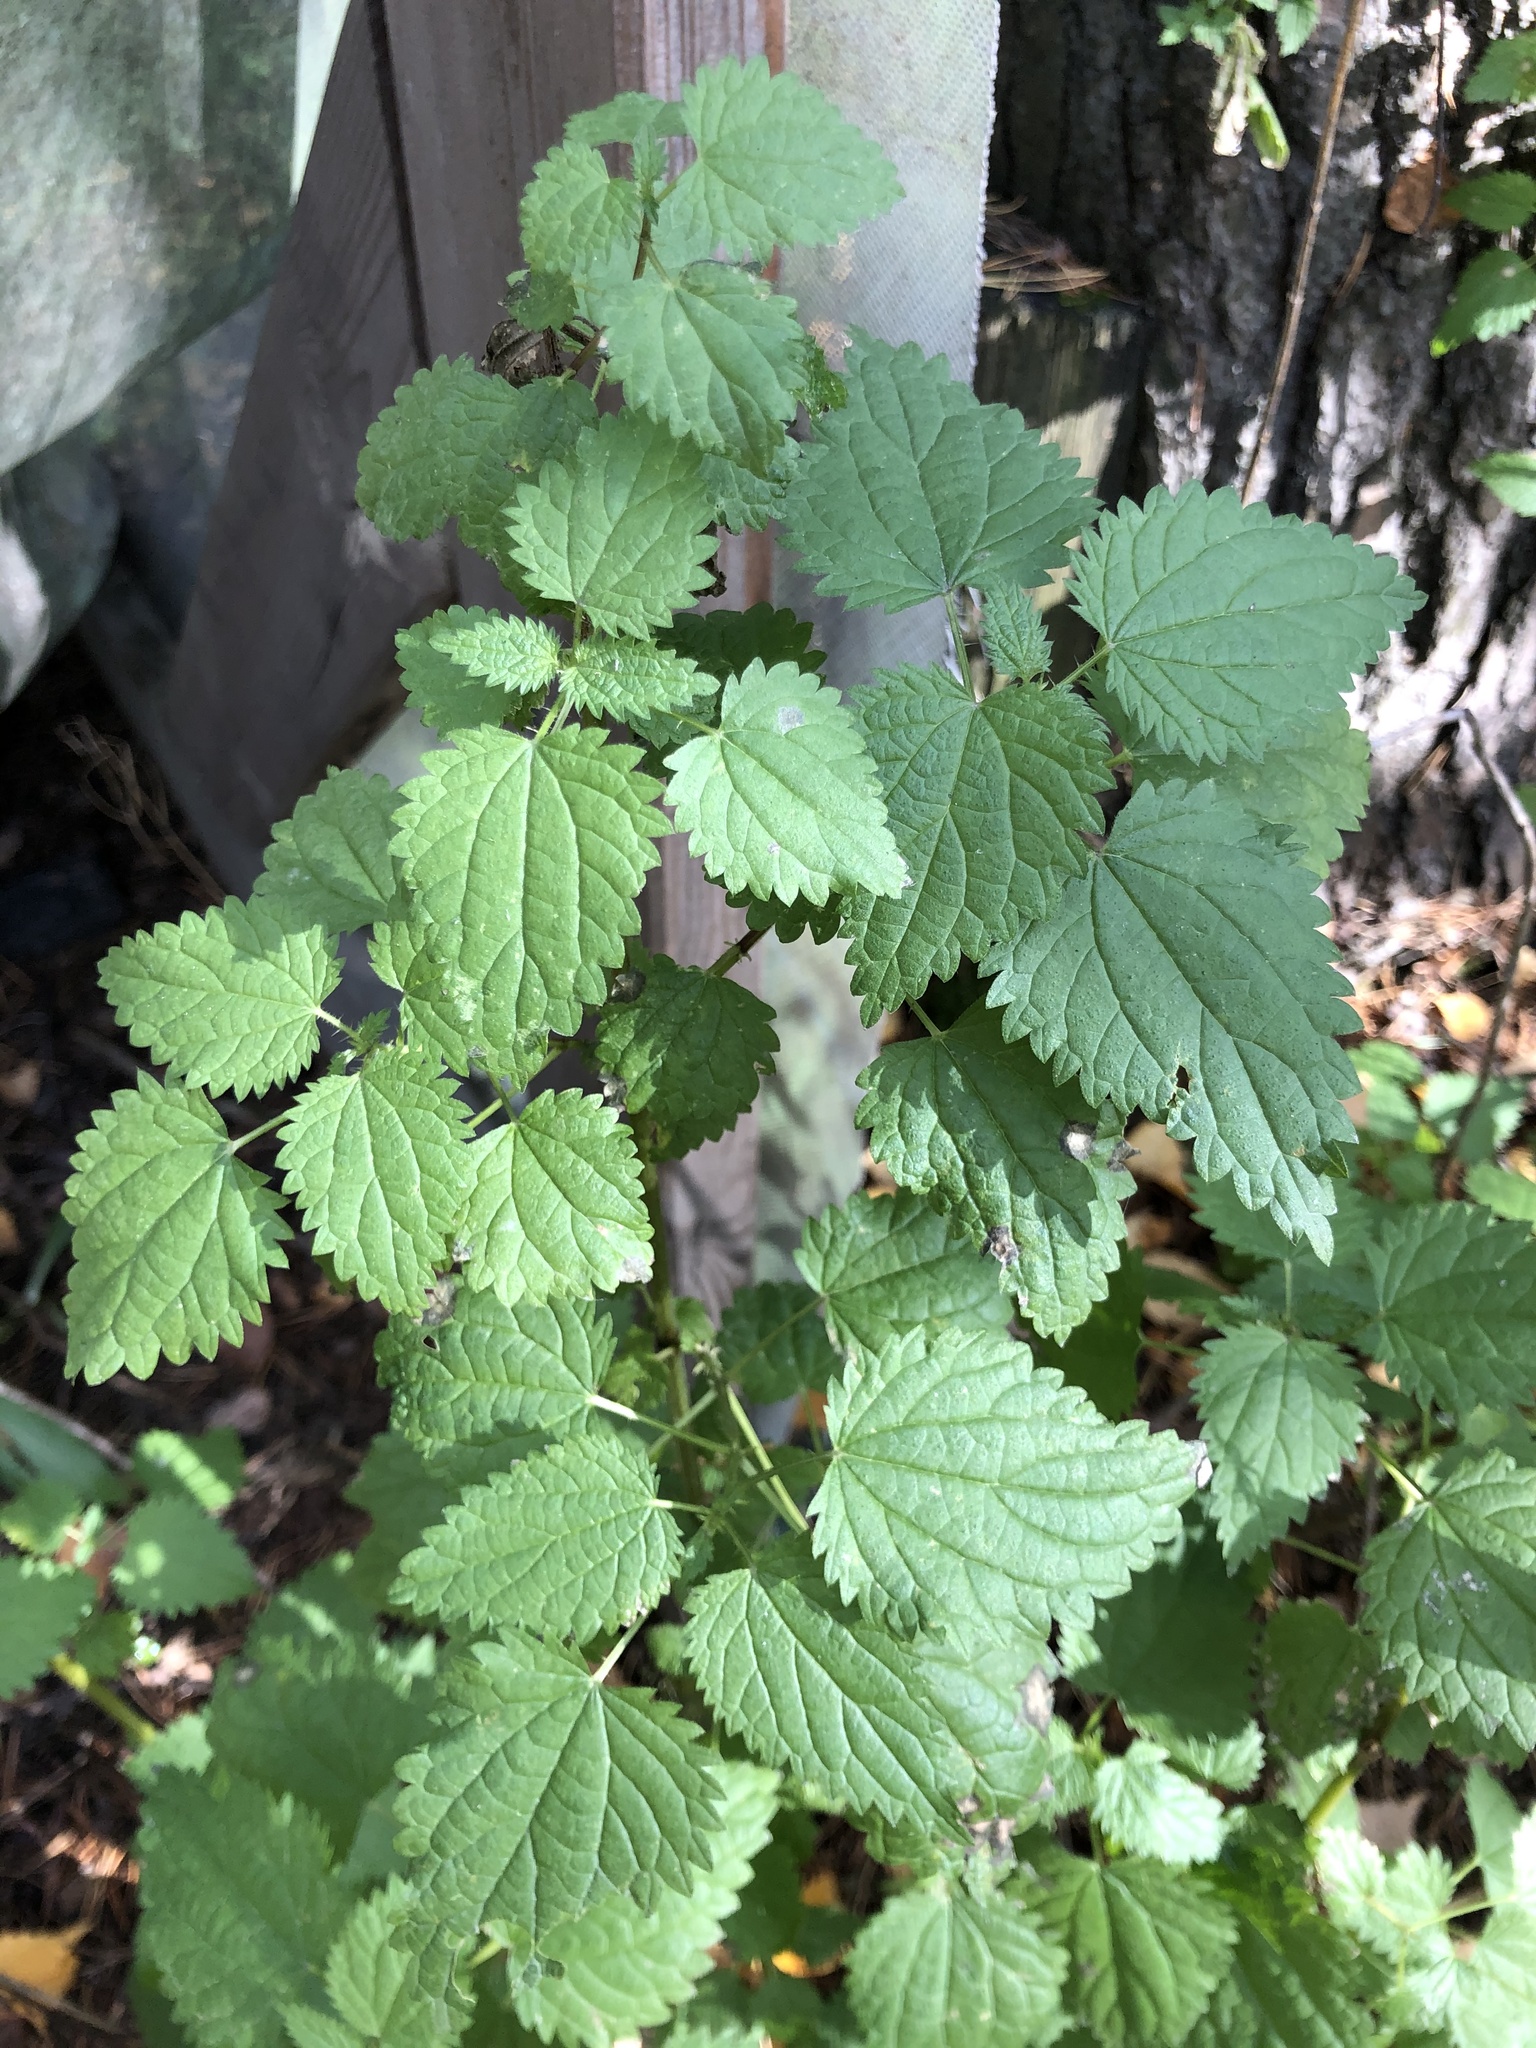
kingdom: Plantae
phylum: Tracheophyta
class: Magnoliopsida
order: Rosales
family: Urticaceae
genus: Urtica
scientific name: Urtica dioica
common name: Common nettle
